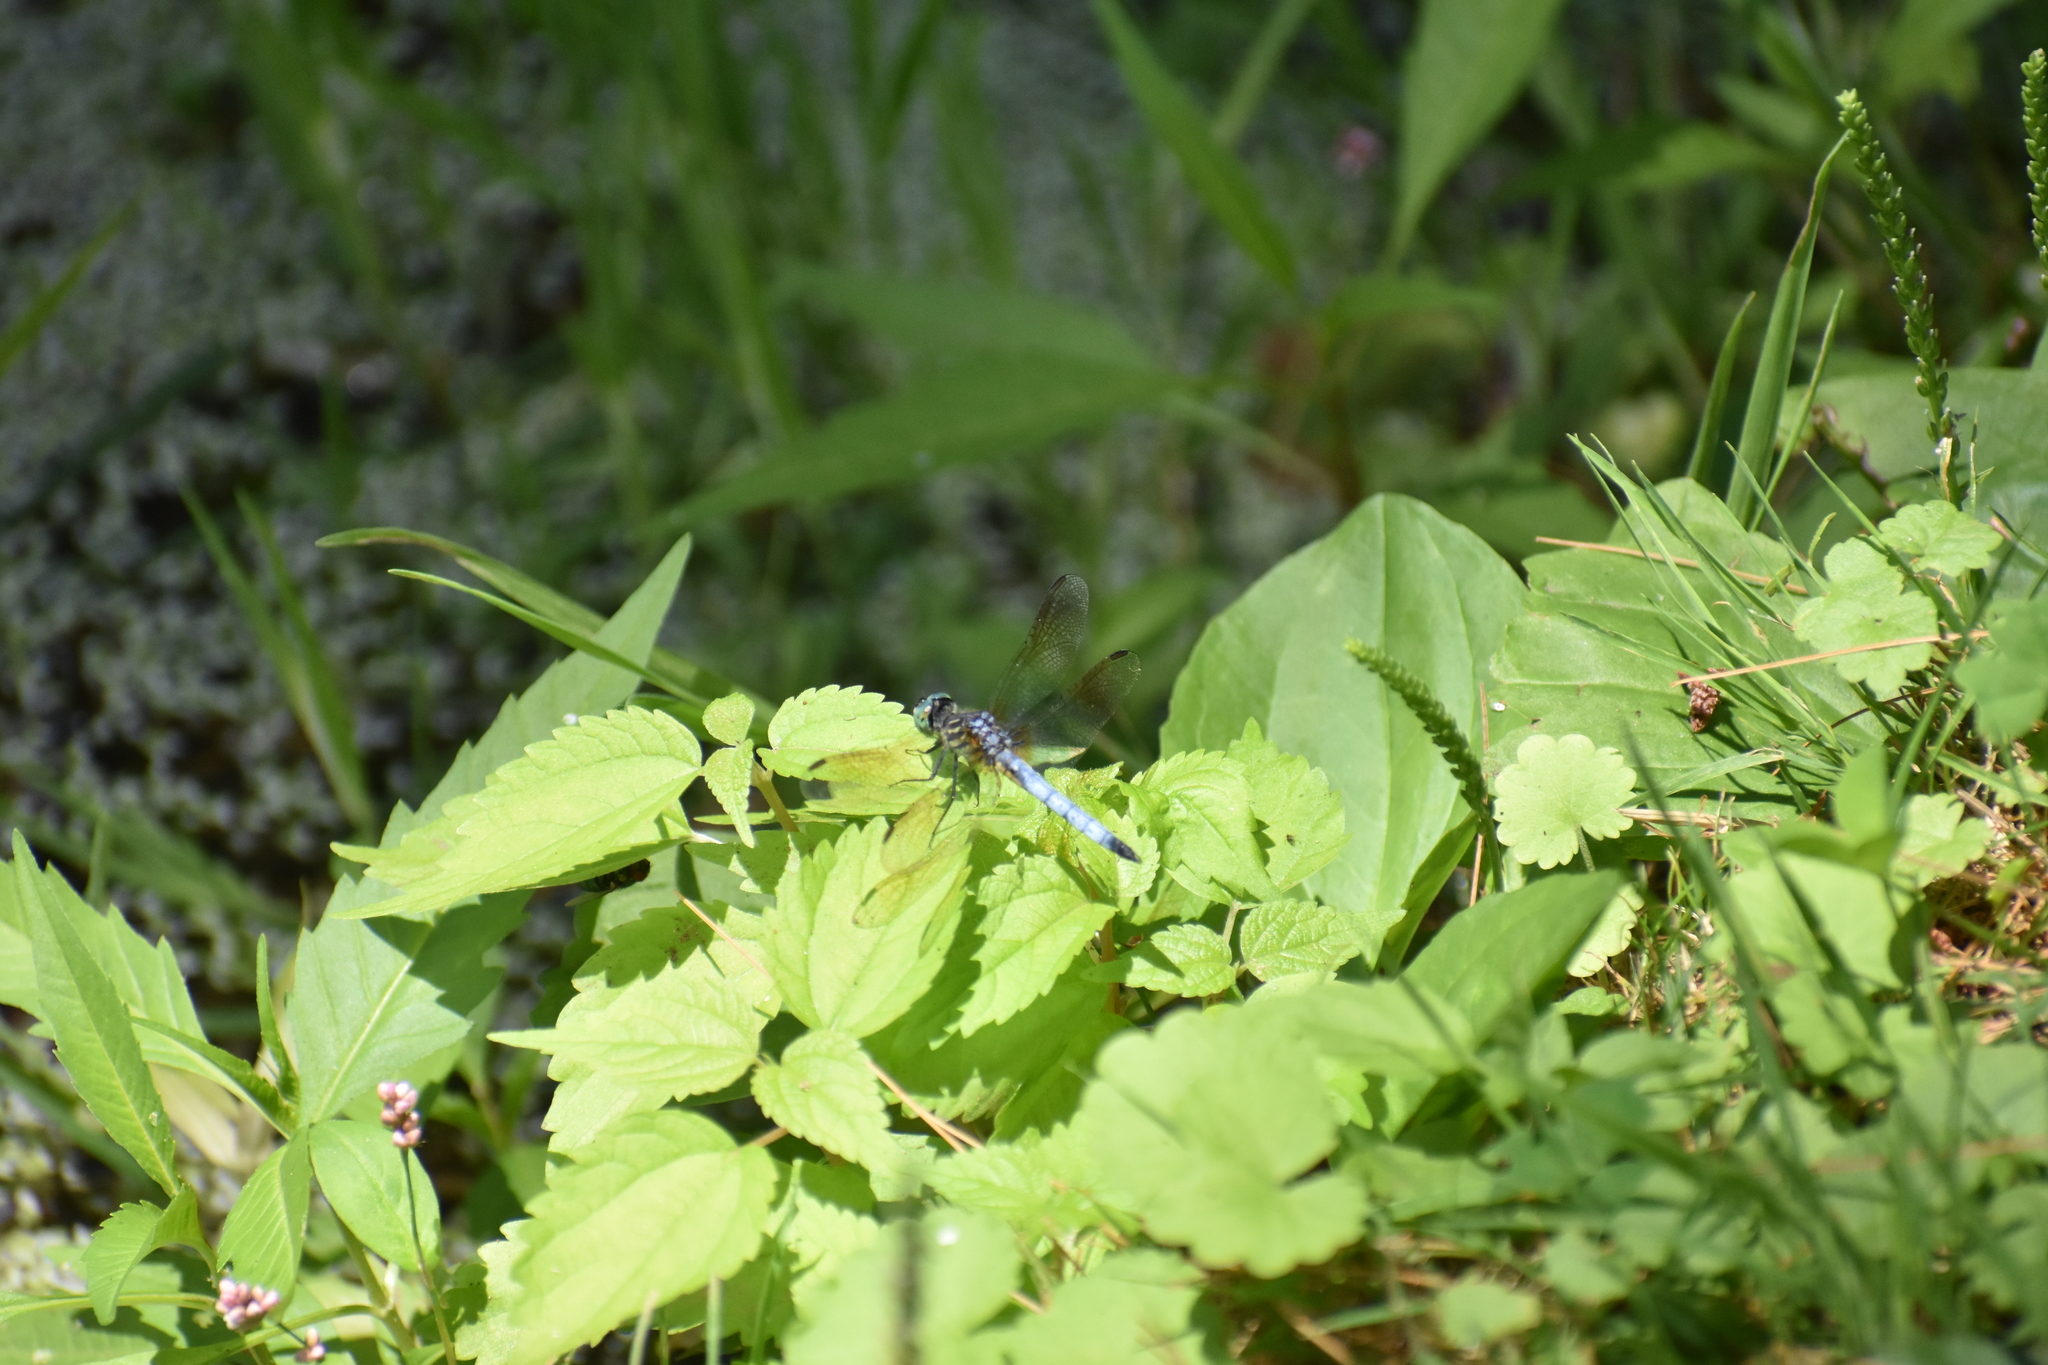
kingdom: Animalia
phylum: Arthropoda
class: Insecta
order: Odonata
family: Libellulidae
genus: Pachydiplax
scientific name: Pachydiplax longipennis
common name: Blue dasher
